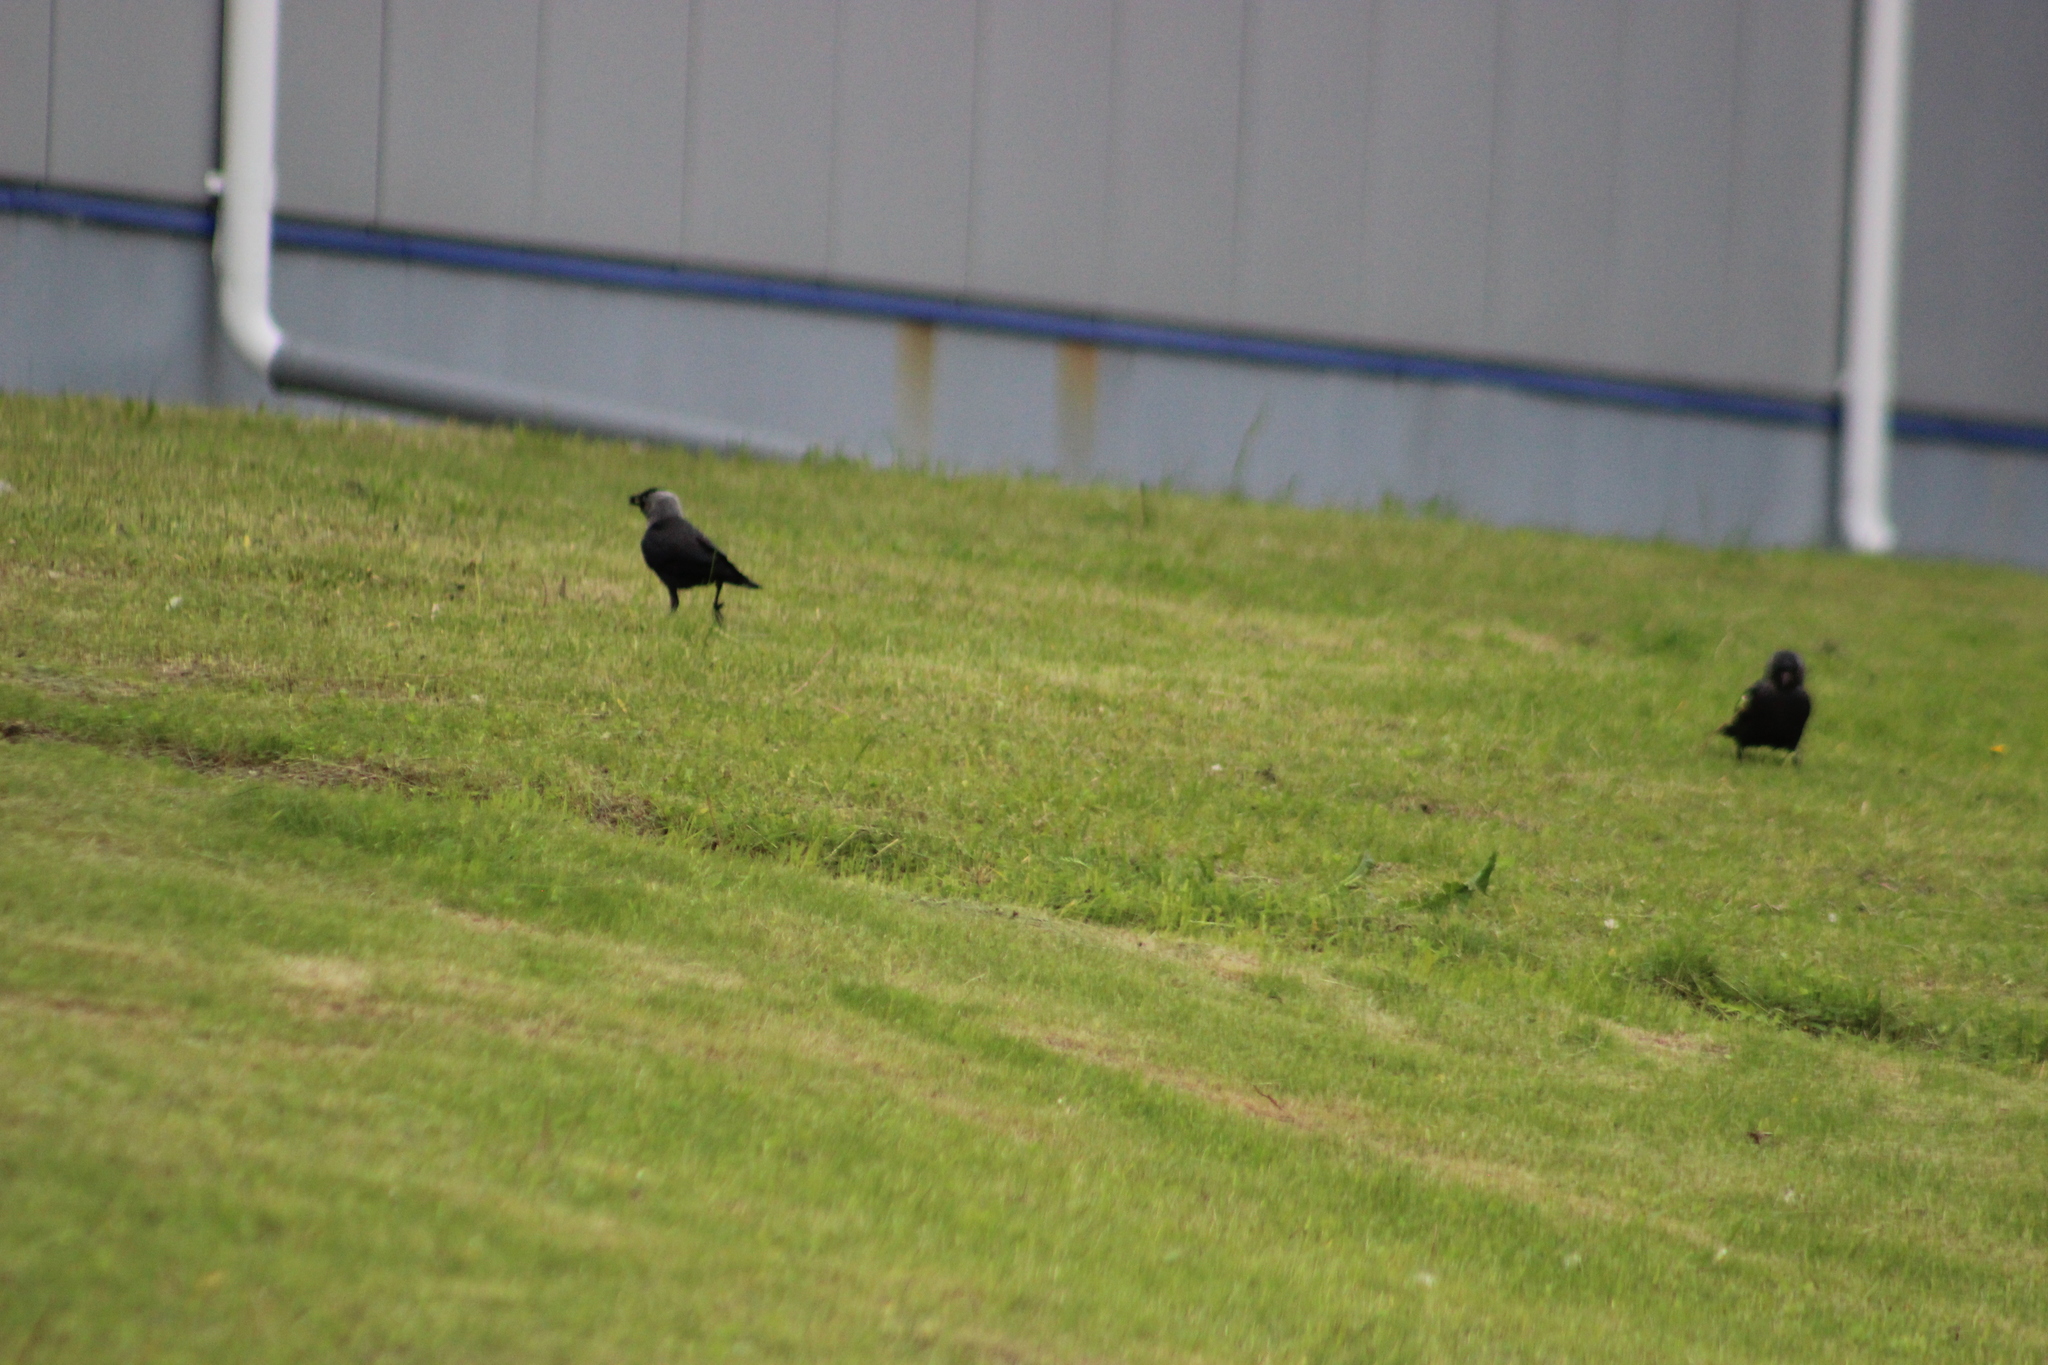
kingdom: Animalia
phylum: Chordata
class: Aves
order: Passeriformes
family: Corvidae
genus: Coloeus
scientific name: Coloeus monedula
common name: Western jackdaw
